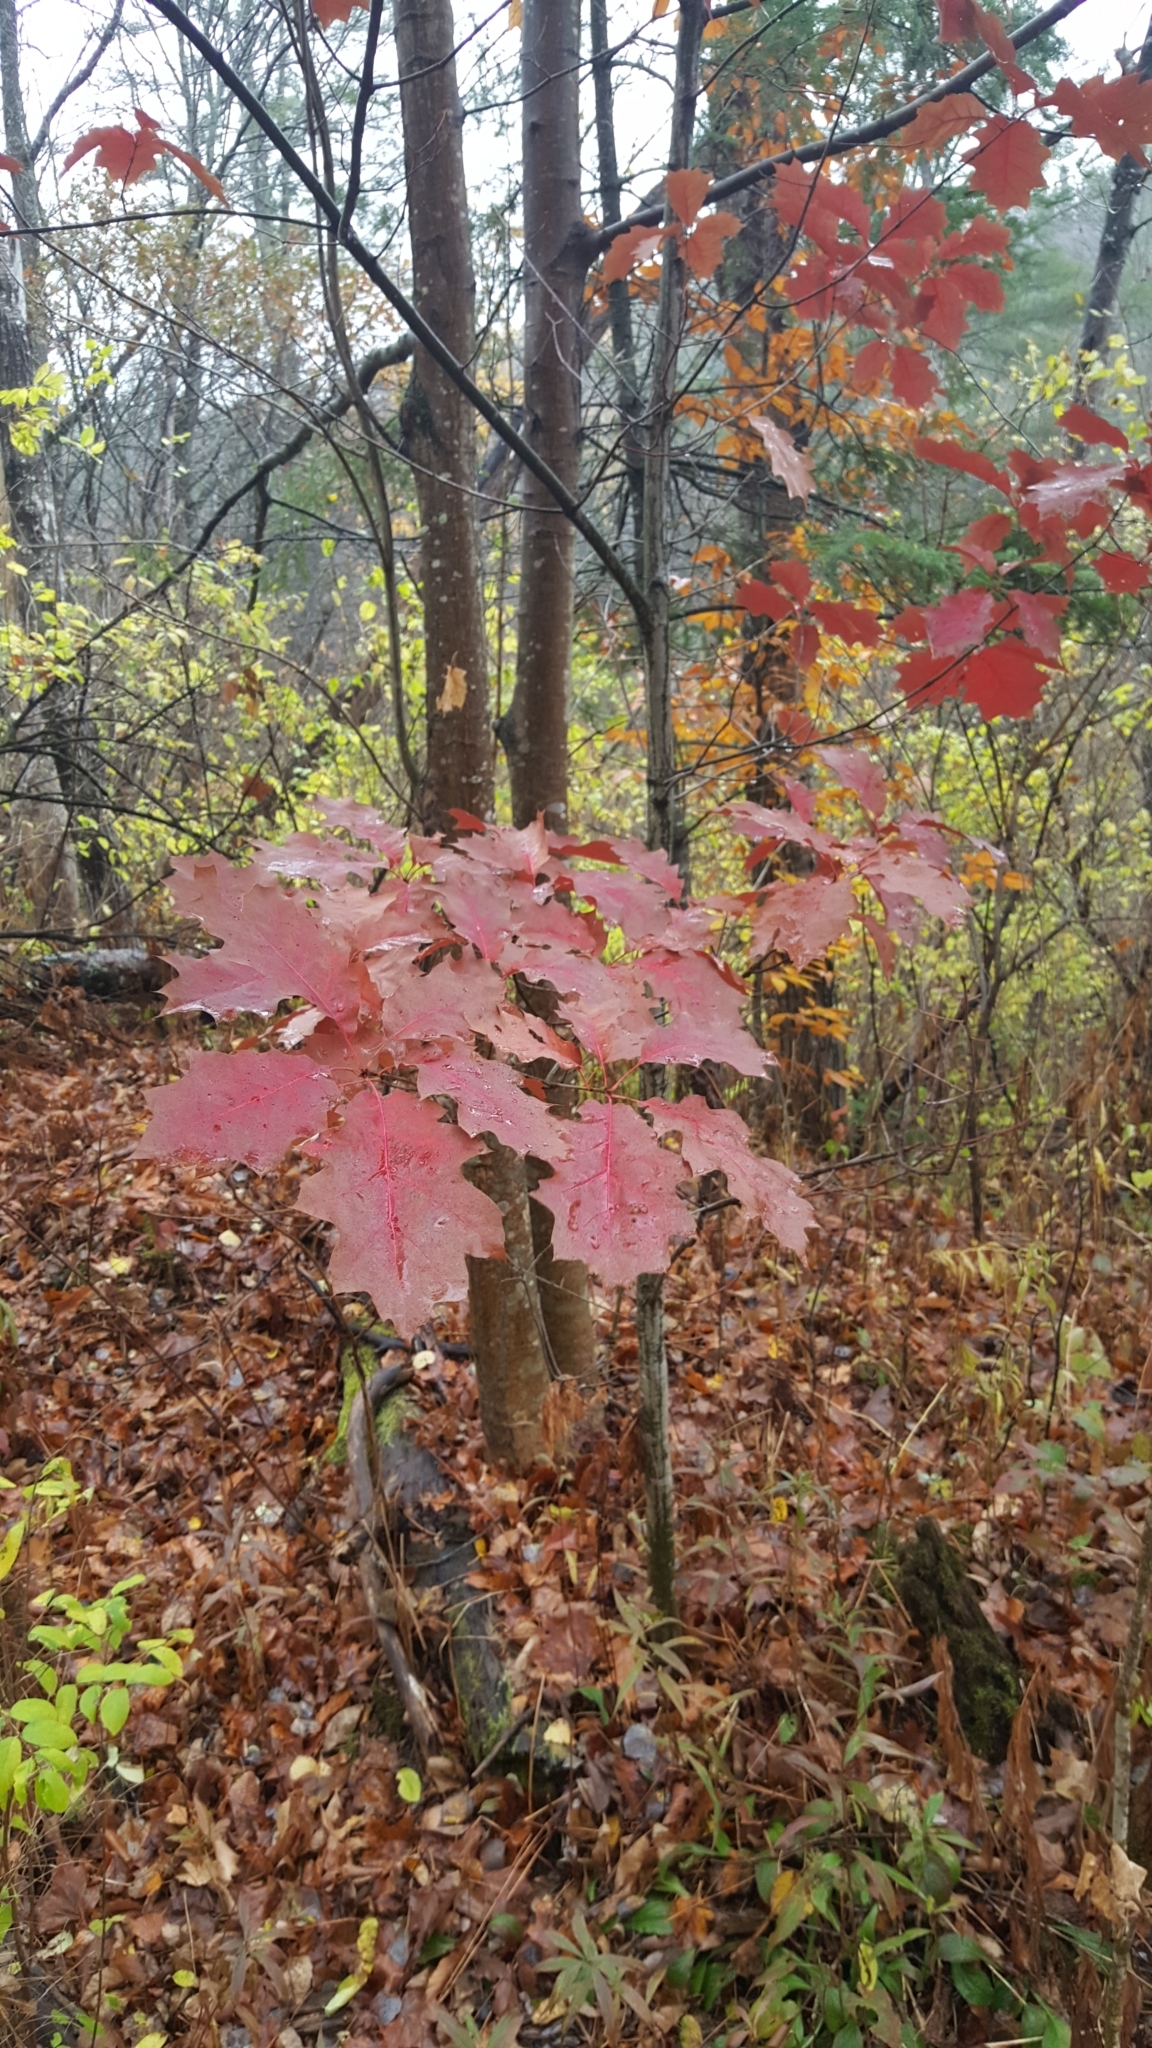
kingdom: Plantae
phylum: Tracheophyta
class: Magnoliopsida
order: Fagales
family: Fagaceae
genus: Quercus
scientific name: Quercus rubra
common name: Red oak
